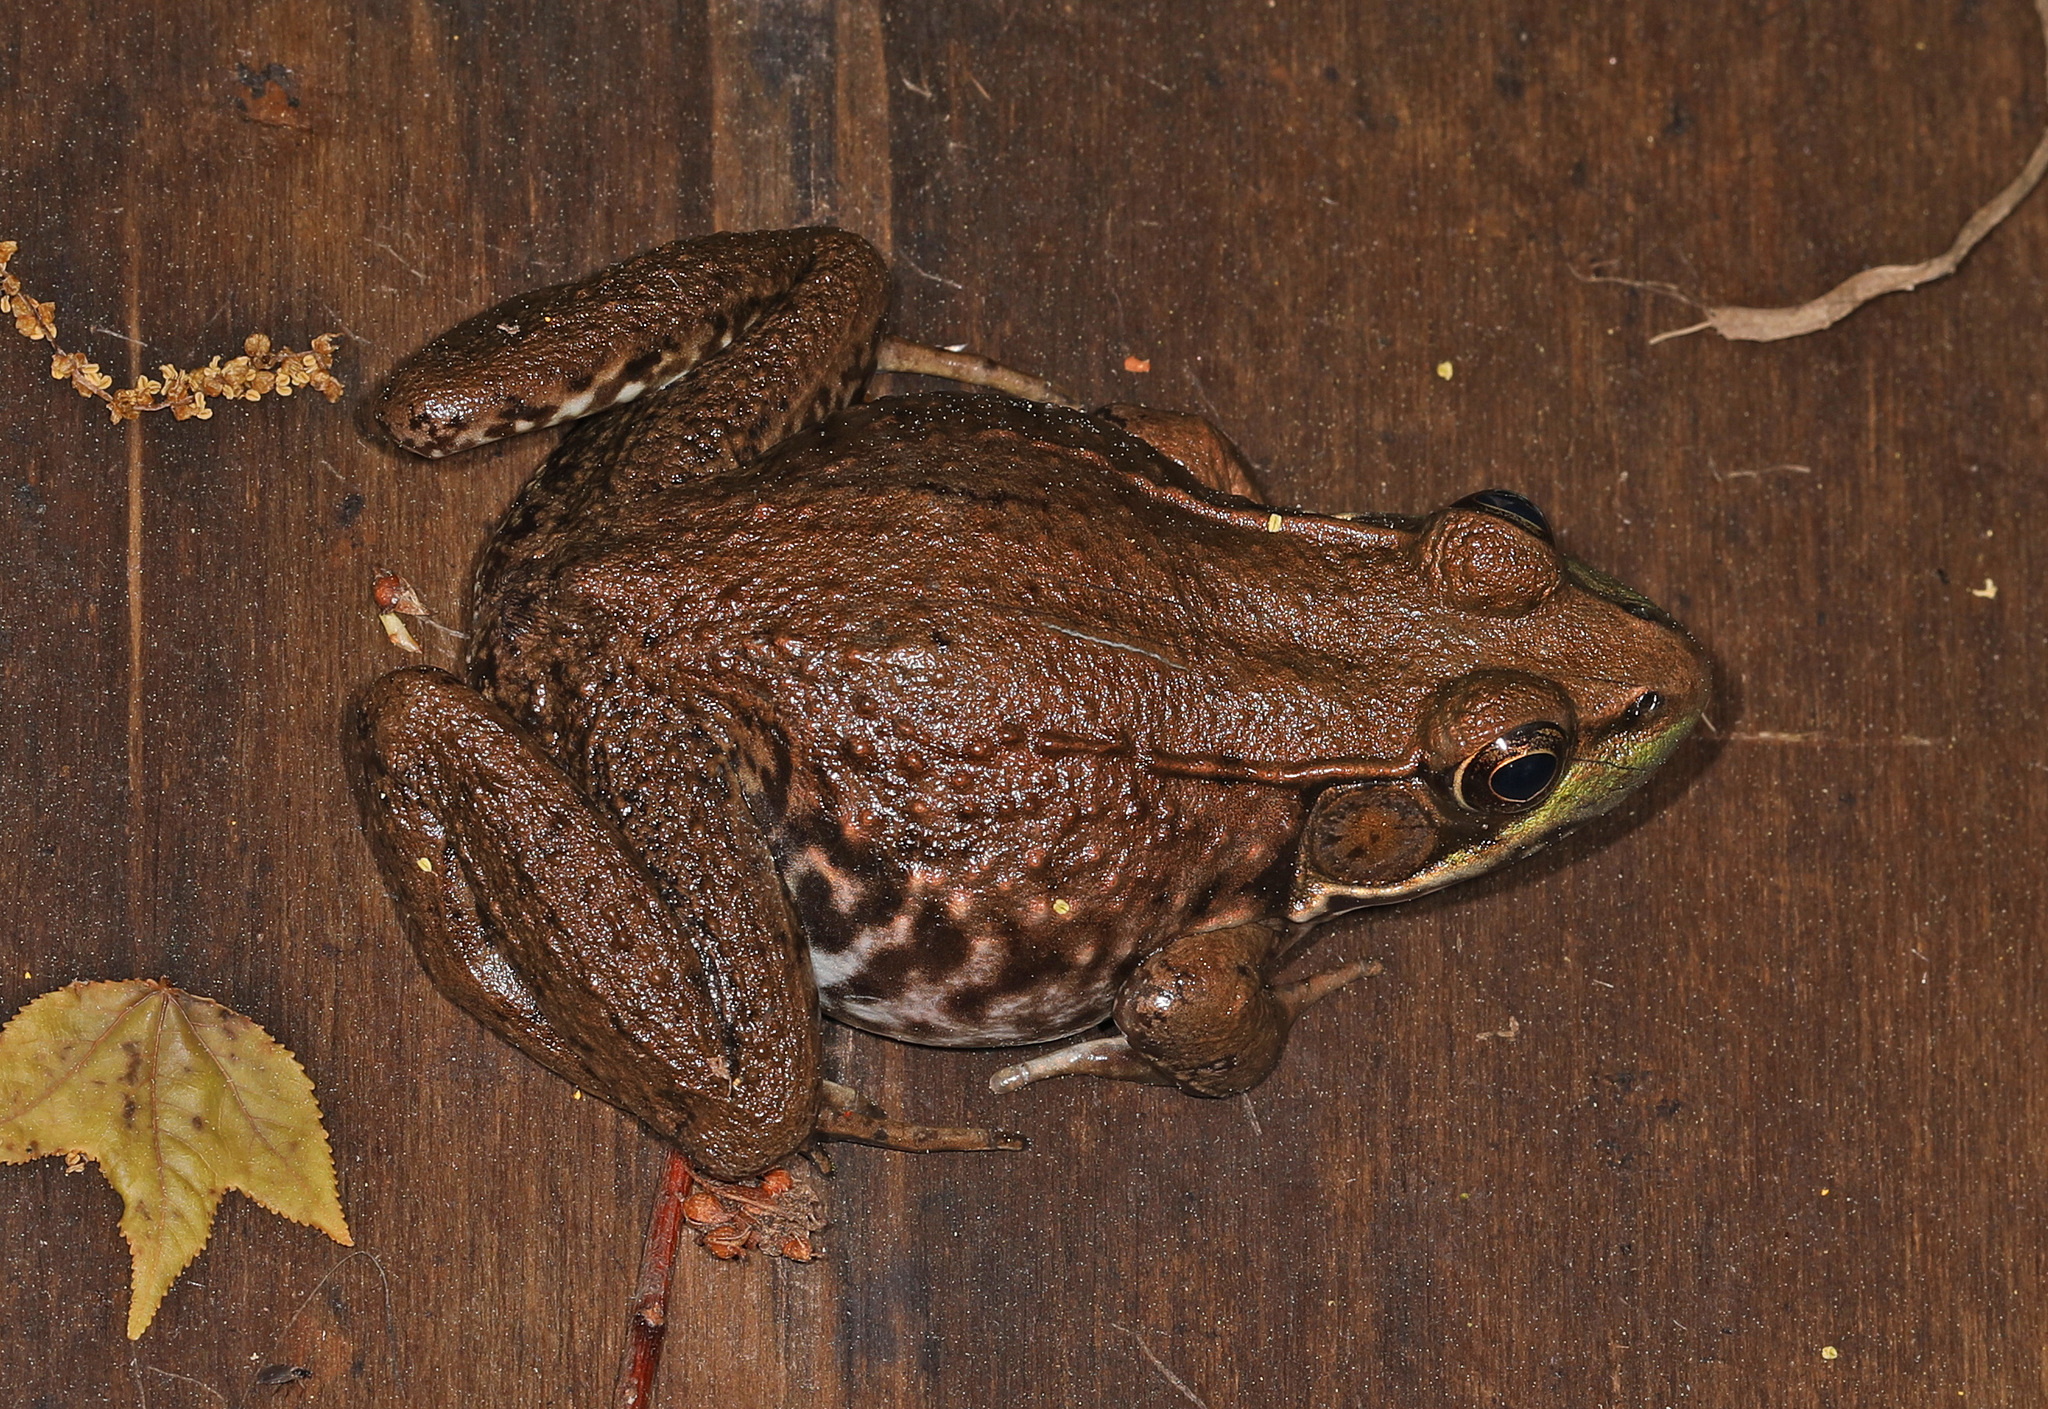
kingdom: Animalia
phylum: Chordata
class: Amphibia
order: Anura
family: Ranidae
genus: Lithobates
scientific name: Lithobates clamitans
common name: Green frog
